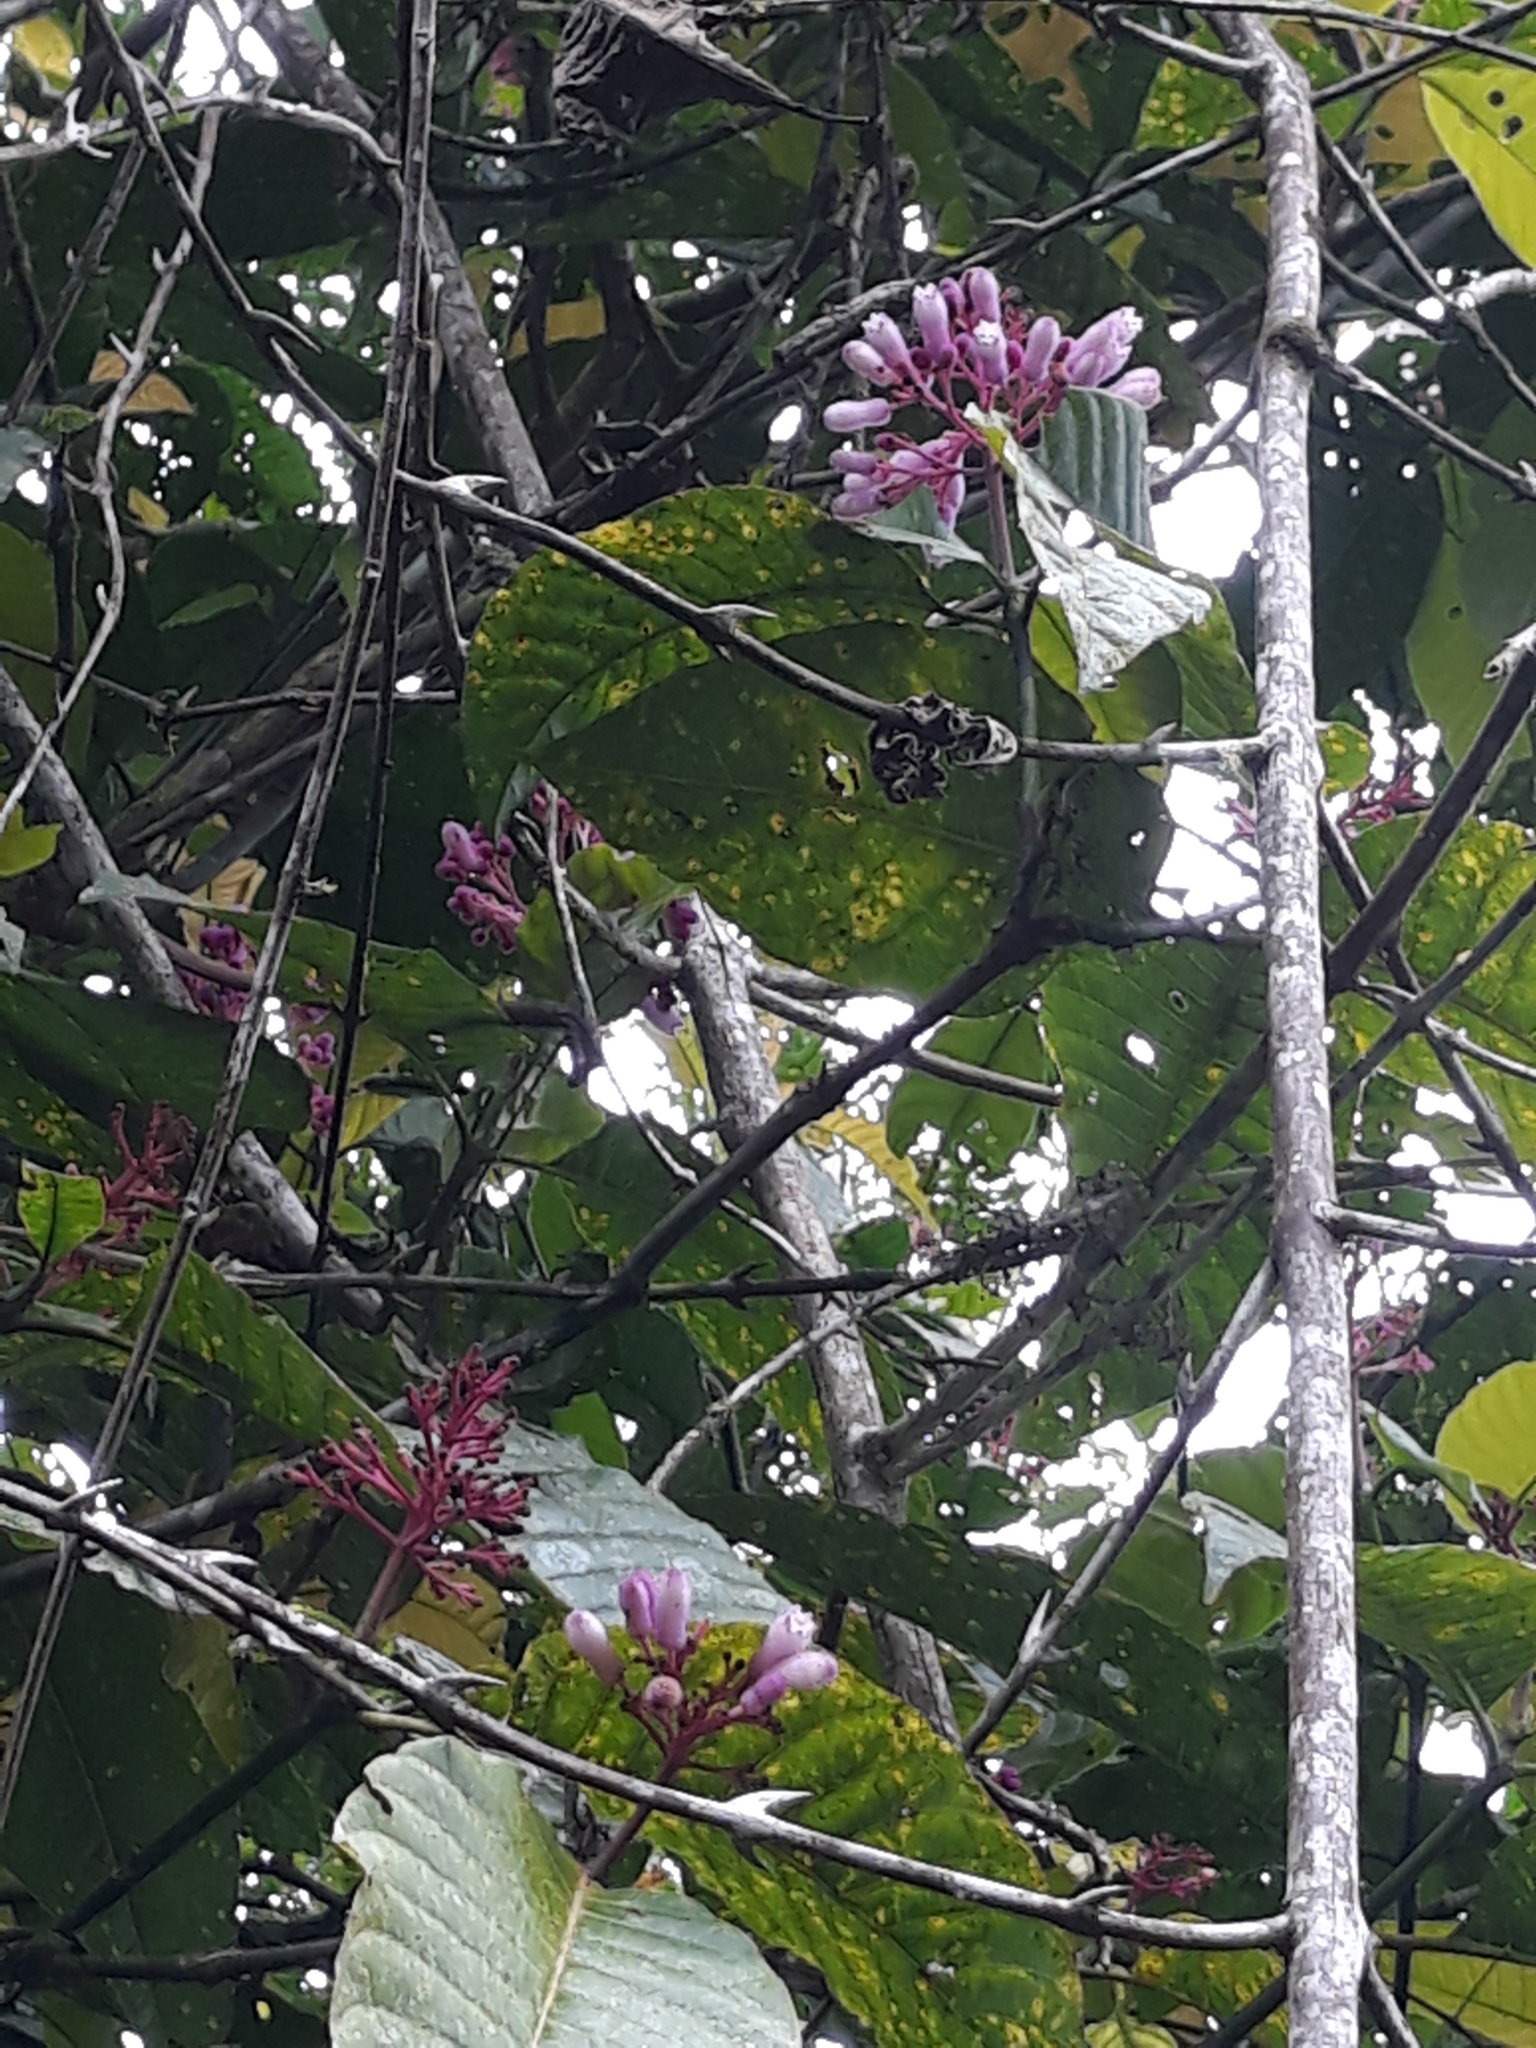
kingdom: Plantae
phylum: Tracheophyta
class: Magnoliopsida
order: Gentianales
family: Rubiaceae
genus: Palicourea
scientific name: Palicourea lasiantha
